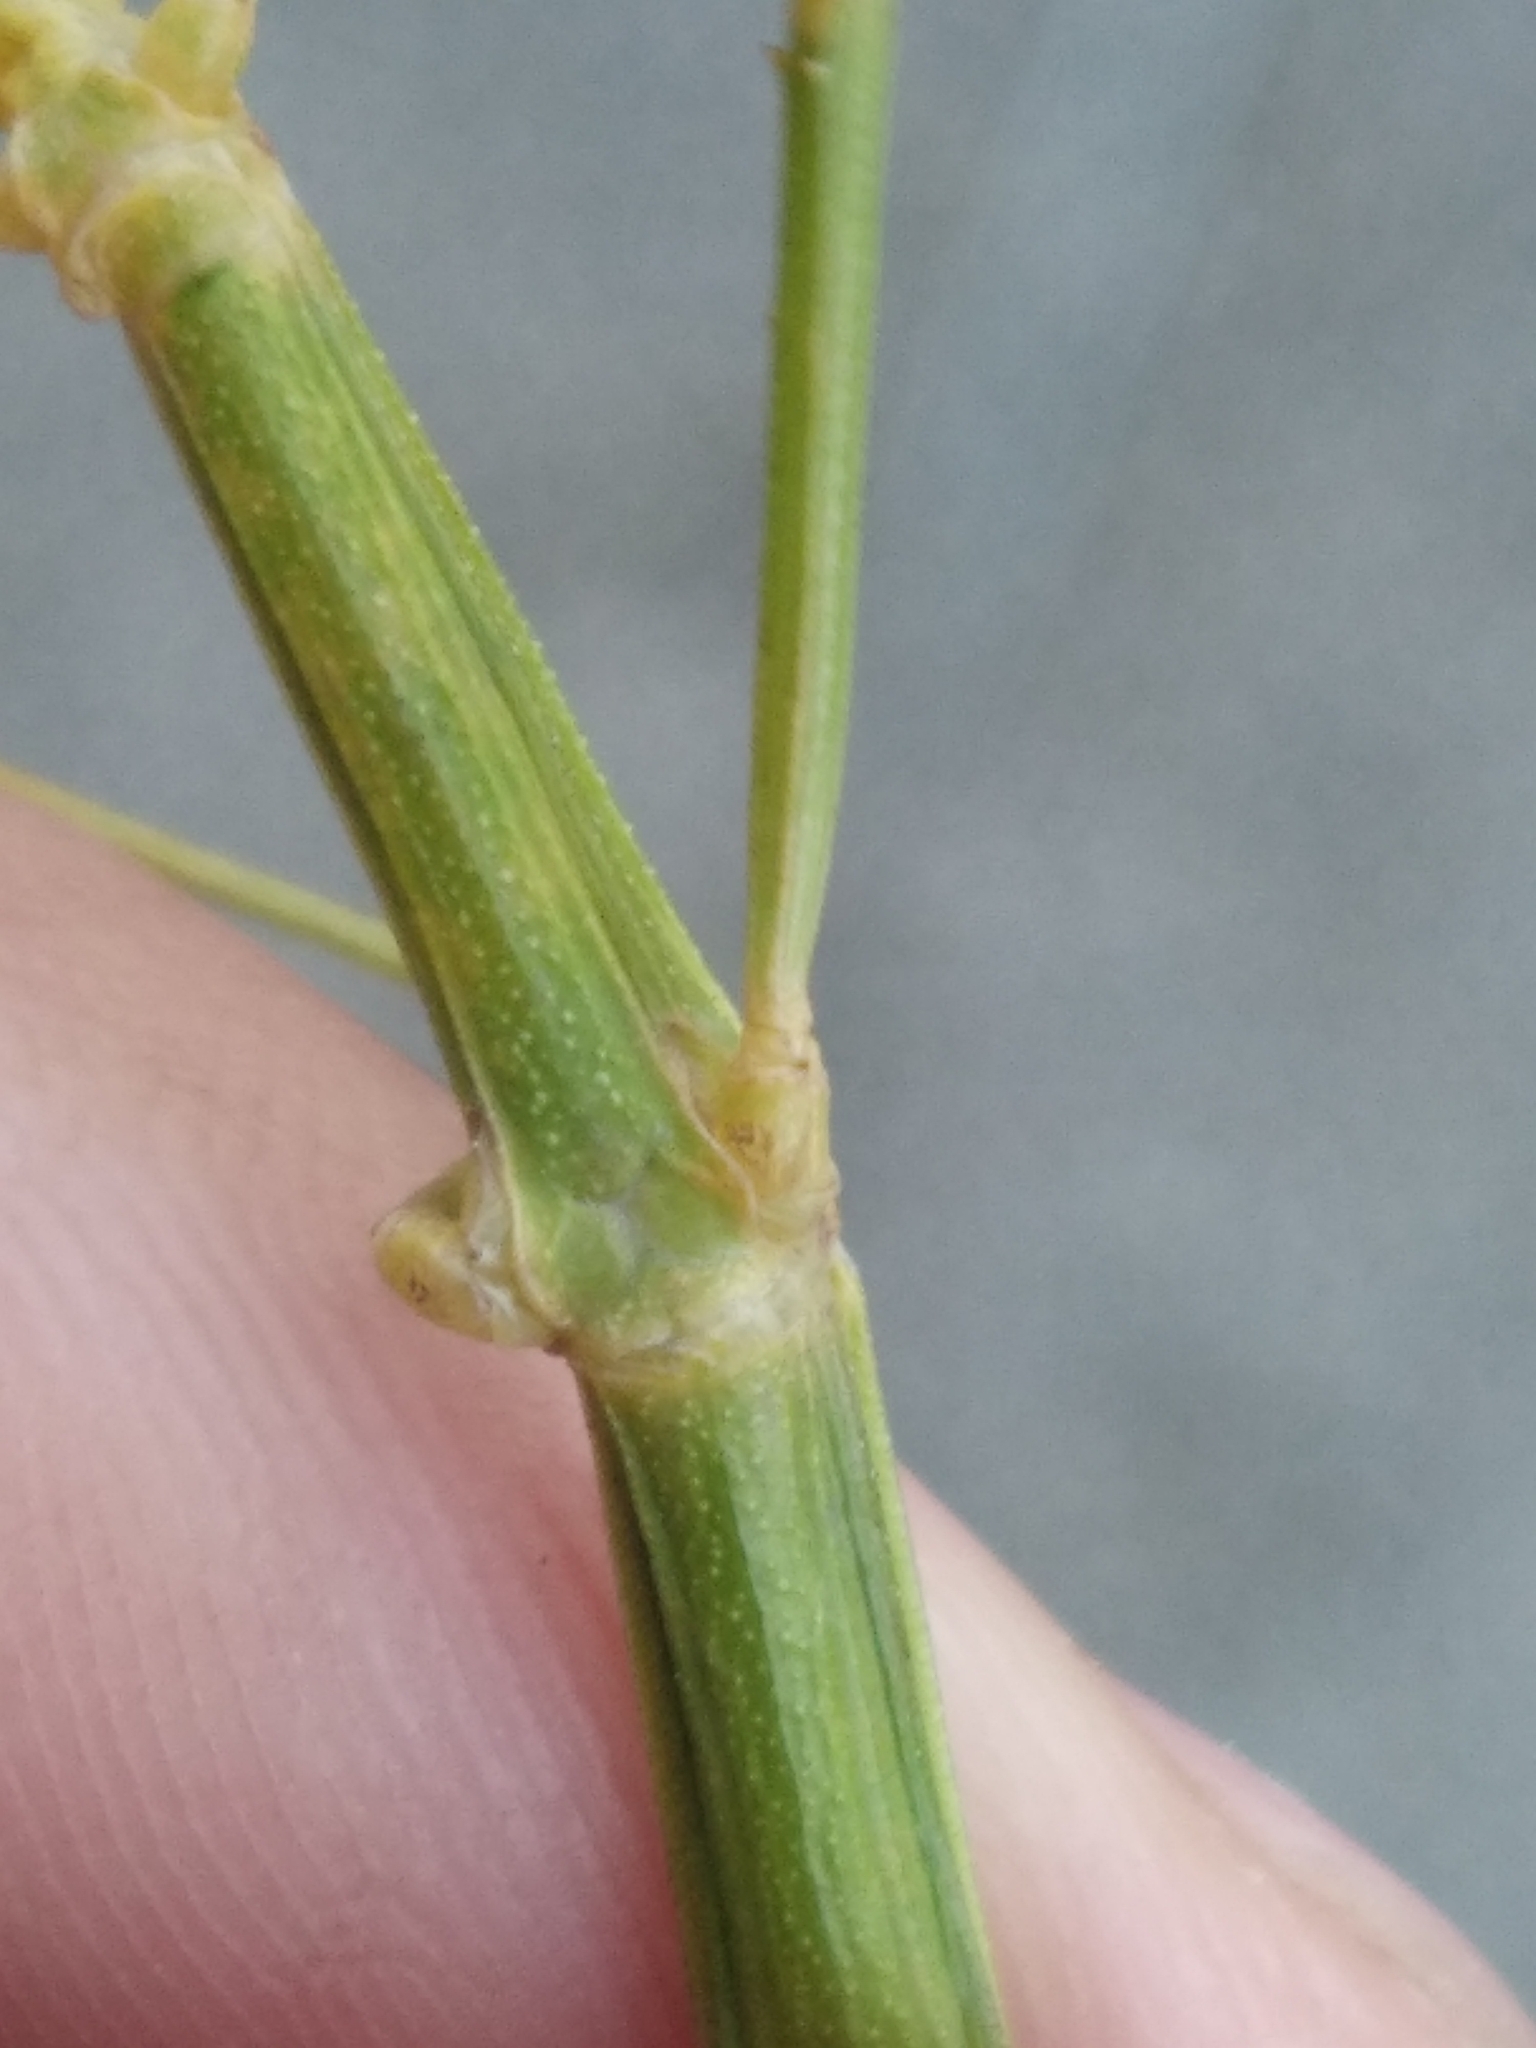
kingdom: Animalia
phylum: Arthropoda
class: Insecta
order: Phasmida
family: Bacillidae
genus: Clonopsis
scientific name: Clonopsis gallica
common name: French stick insect
